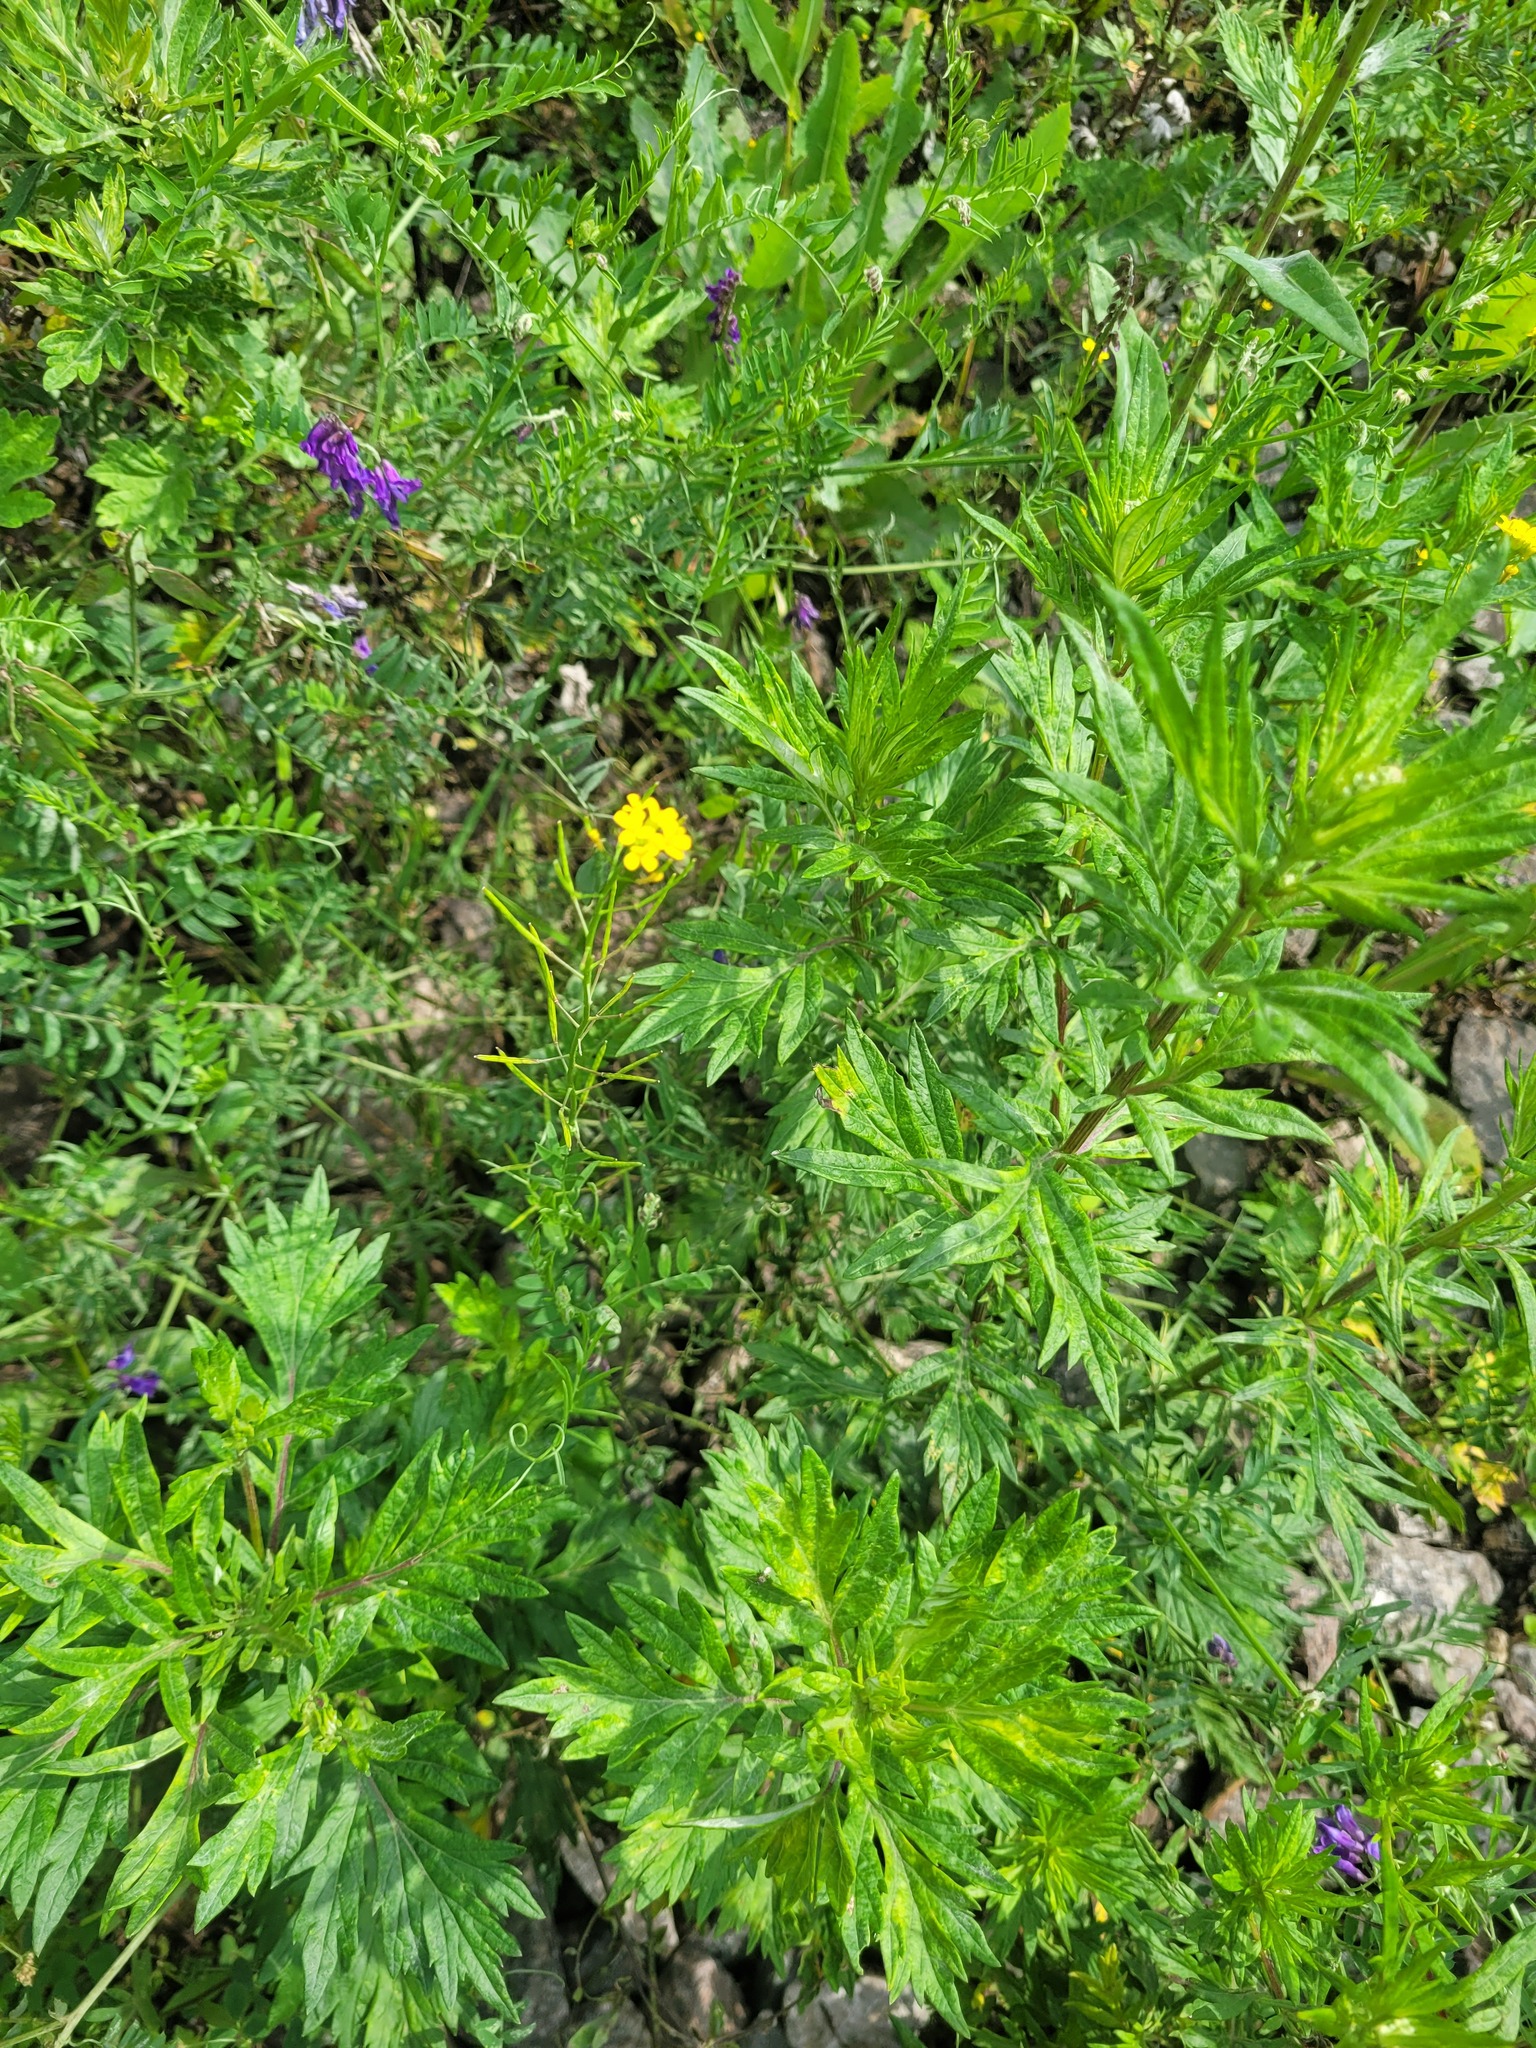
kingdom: Plantae
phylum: Tracheophyta
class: Magnoliopsida
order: Brassicales
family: Brassicaceae
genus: Erysimum
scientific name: Erysimum cheiranthoides
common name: Treacle mustard
